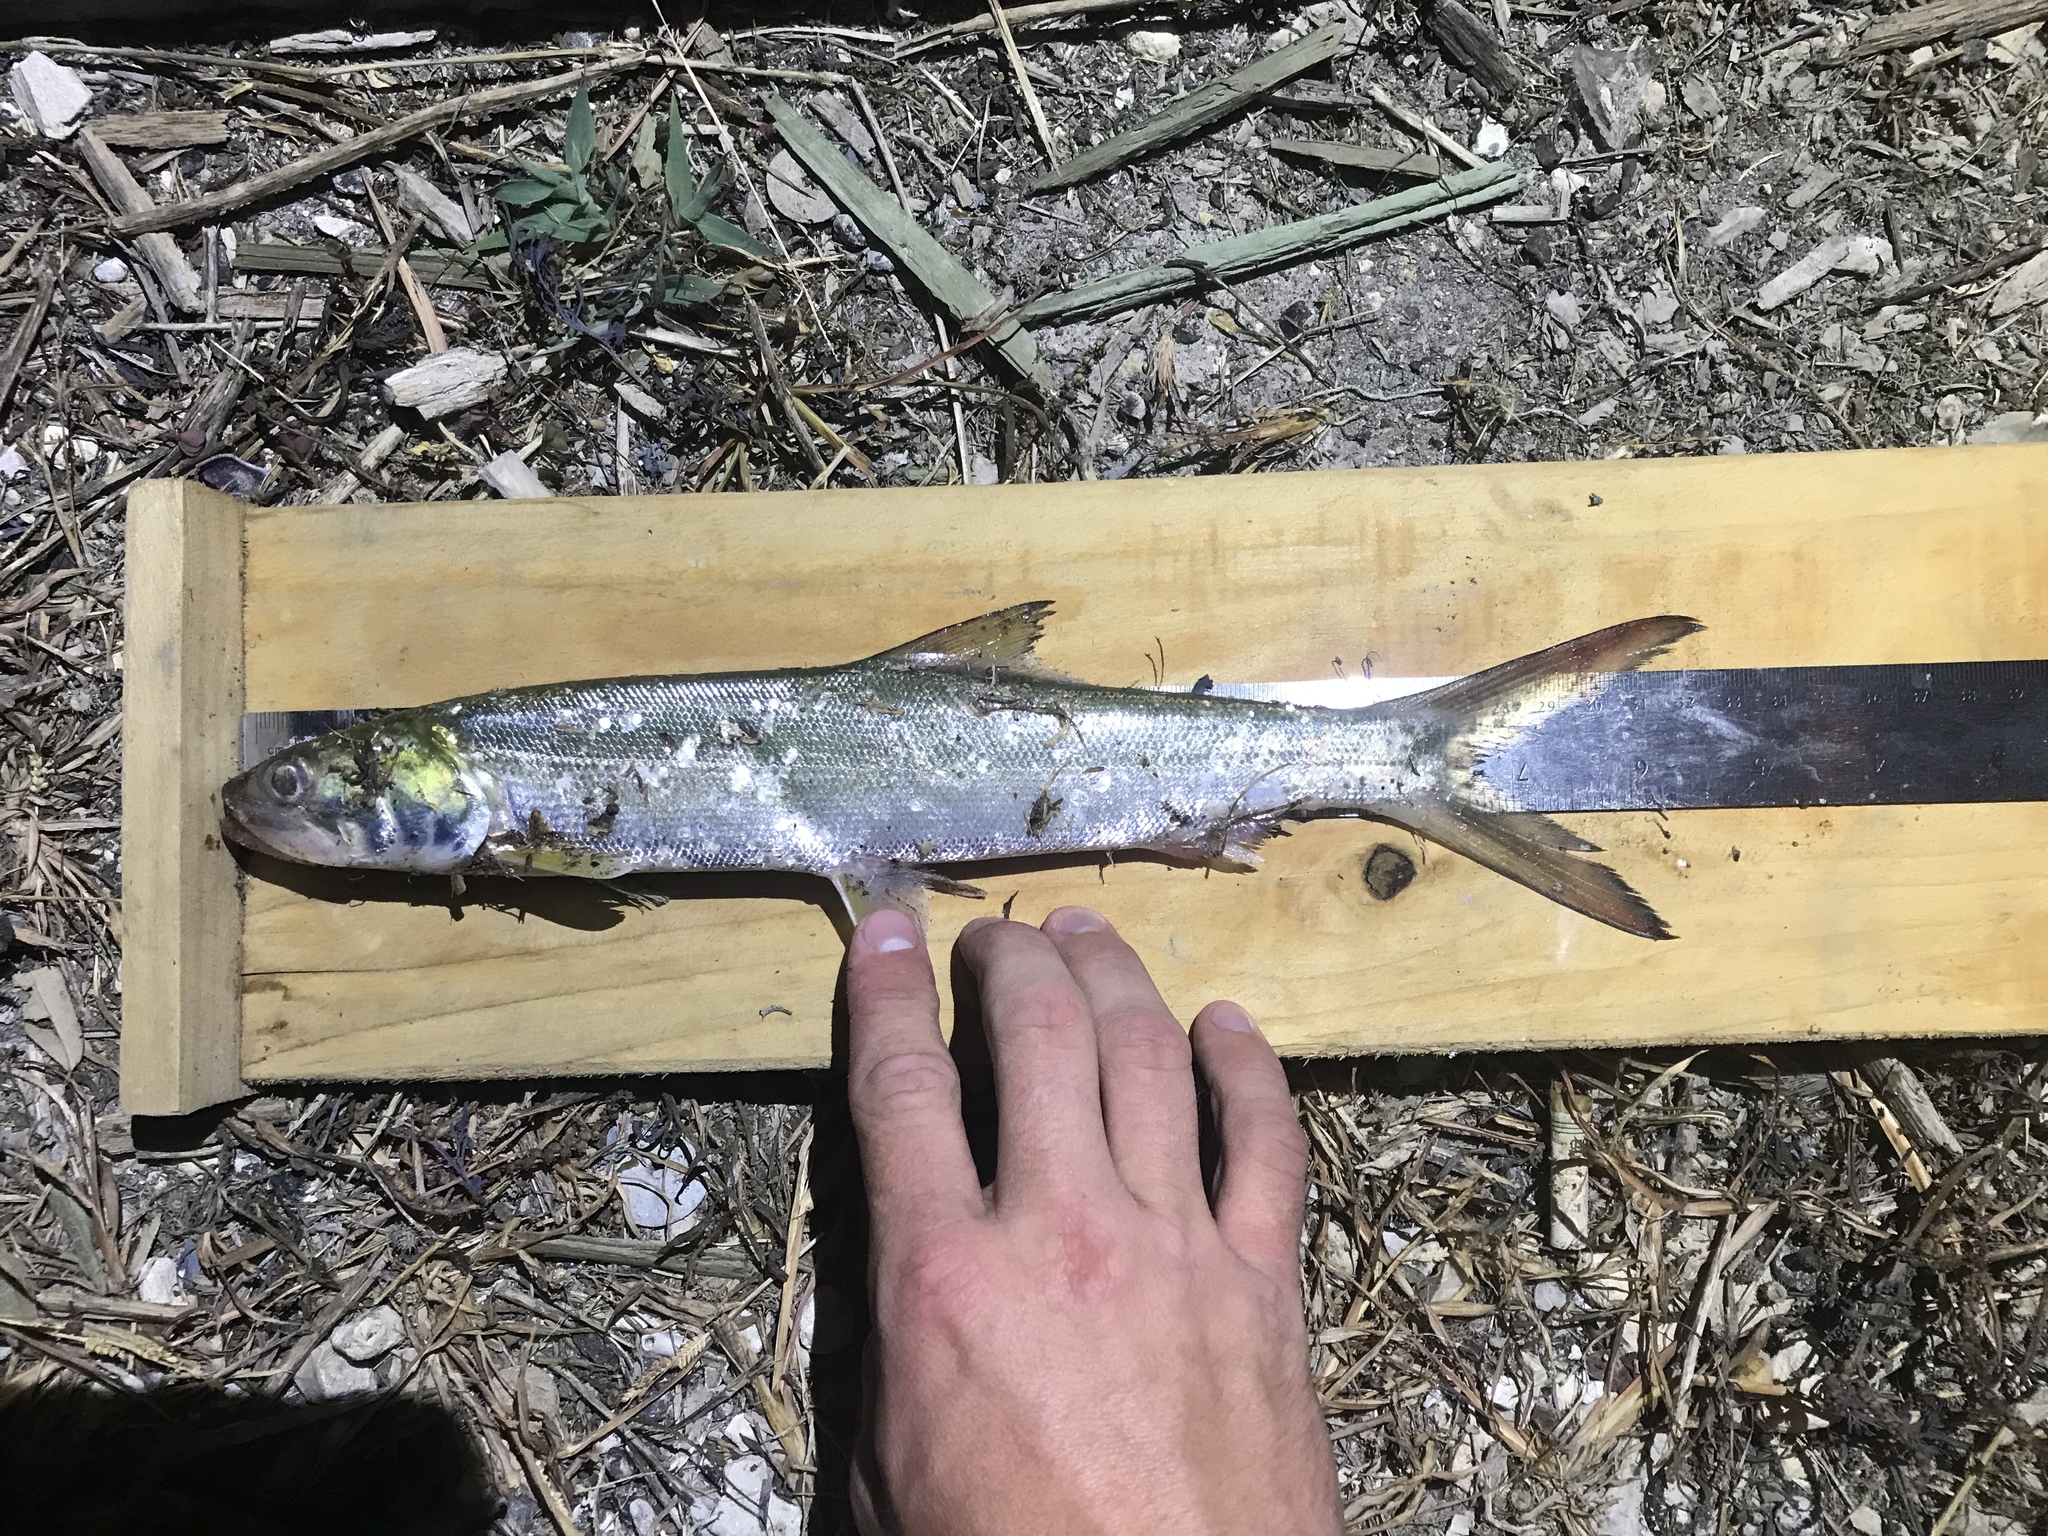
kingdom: Animalia
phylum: Chordata
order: Elopiformes
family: Elopidae
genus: Elops
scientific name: Elops saurus
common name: Ladyfish
